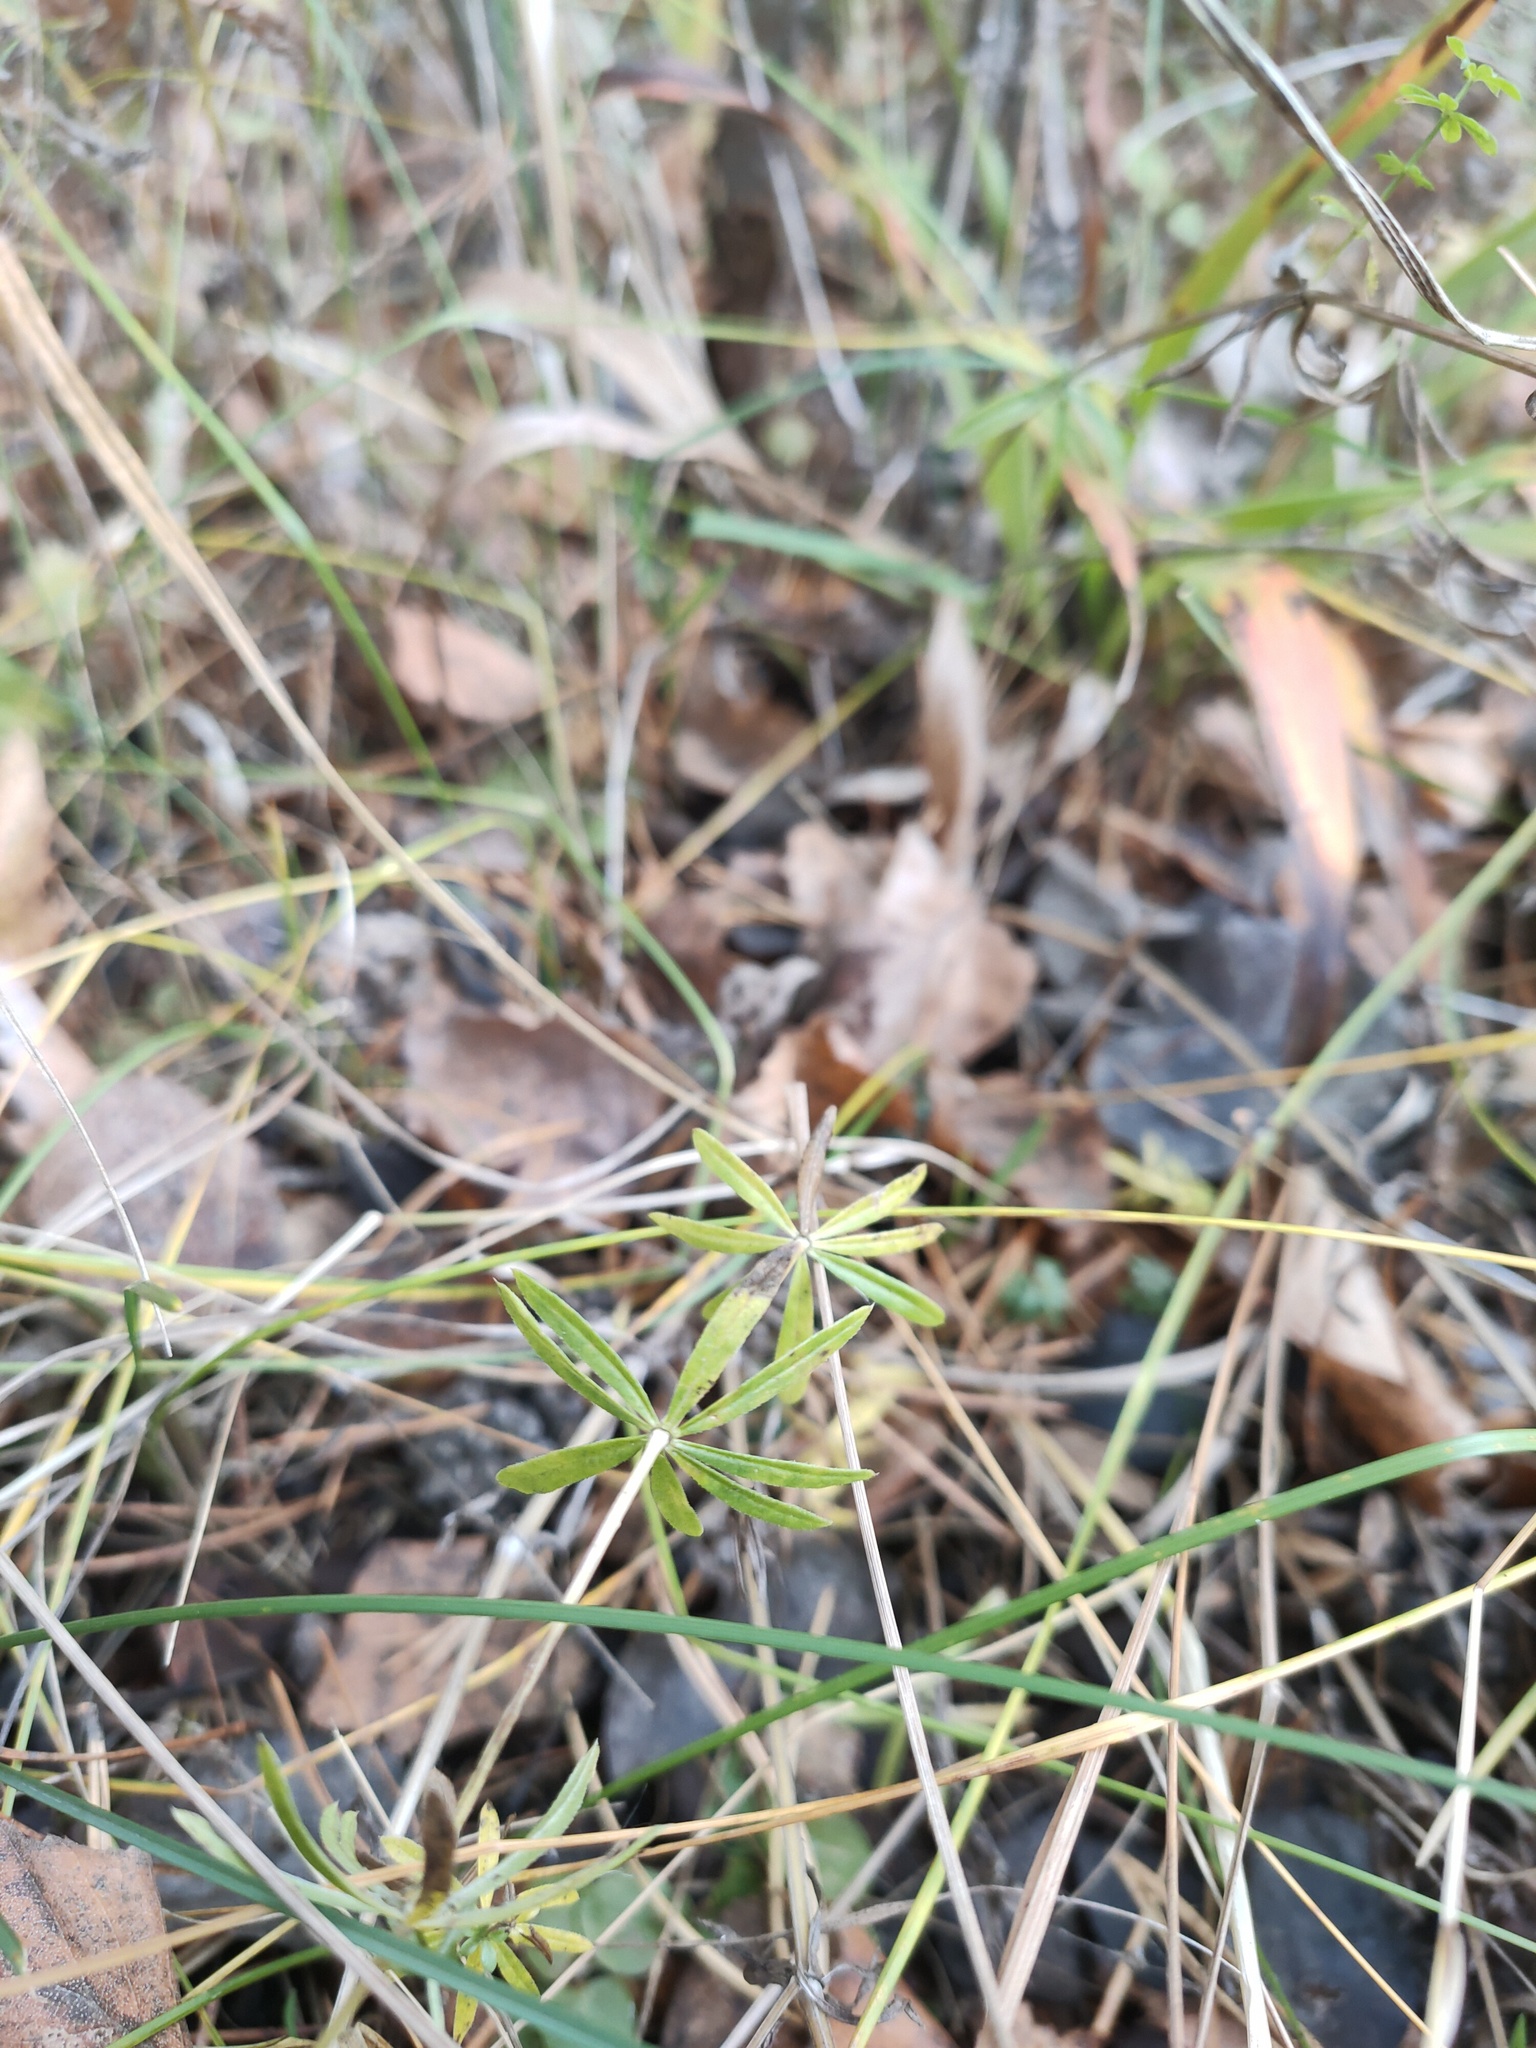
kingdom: Plantae
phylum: Tracheophyta
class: Magnoliopsida
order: Gentianales
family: Rubiaceae
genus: Galium
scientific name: Galium mollugo
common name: Hedge bedstraw
